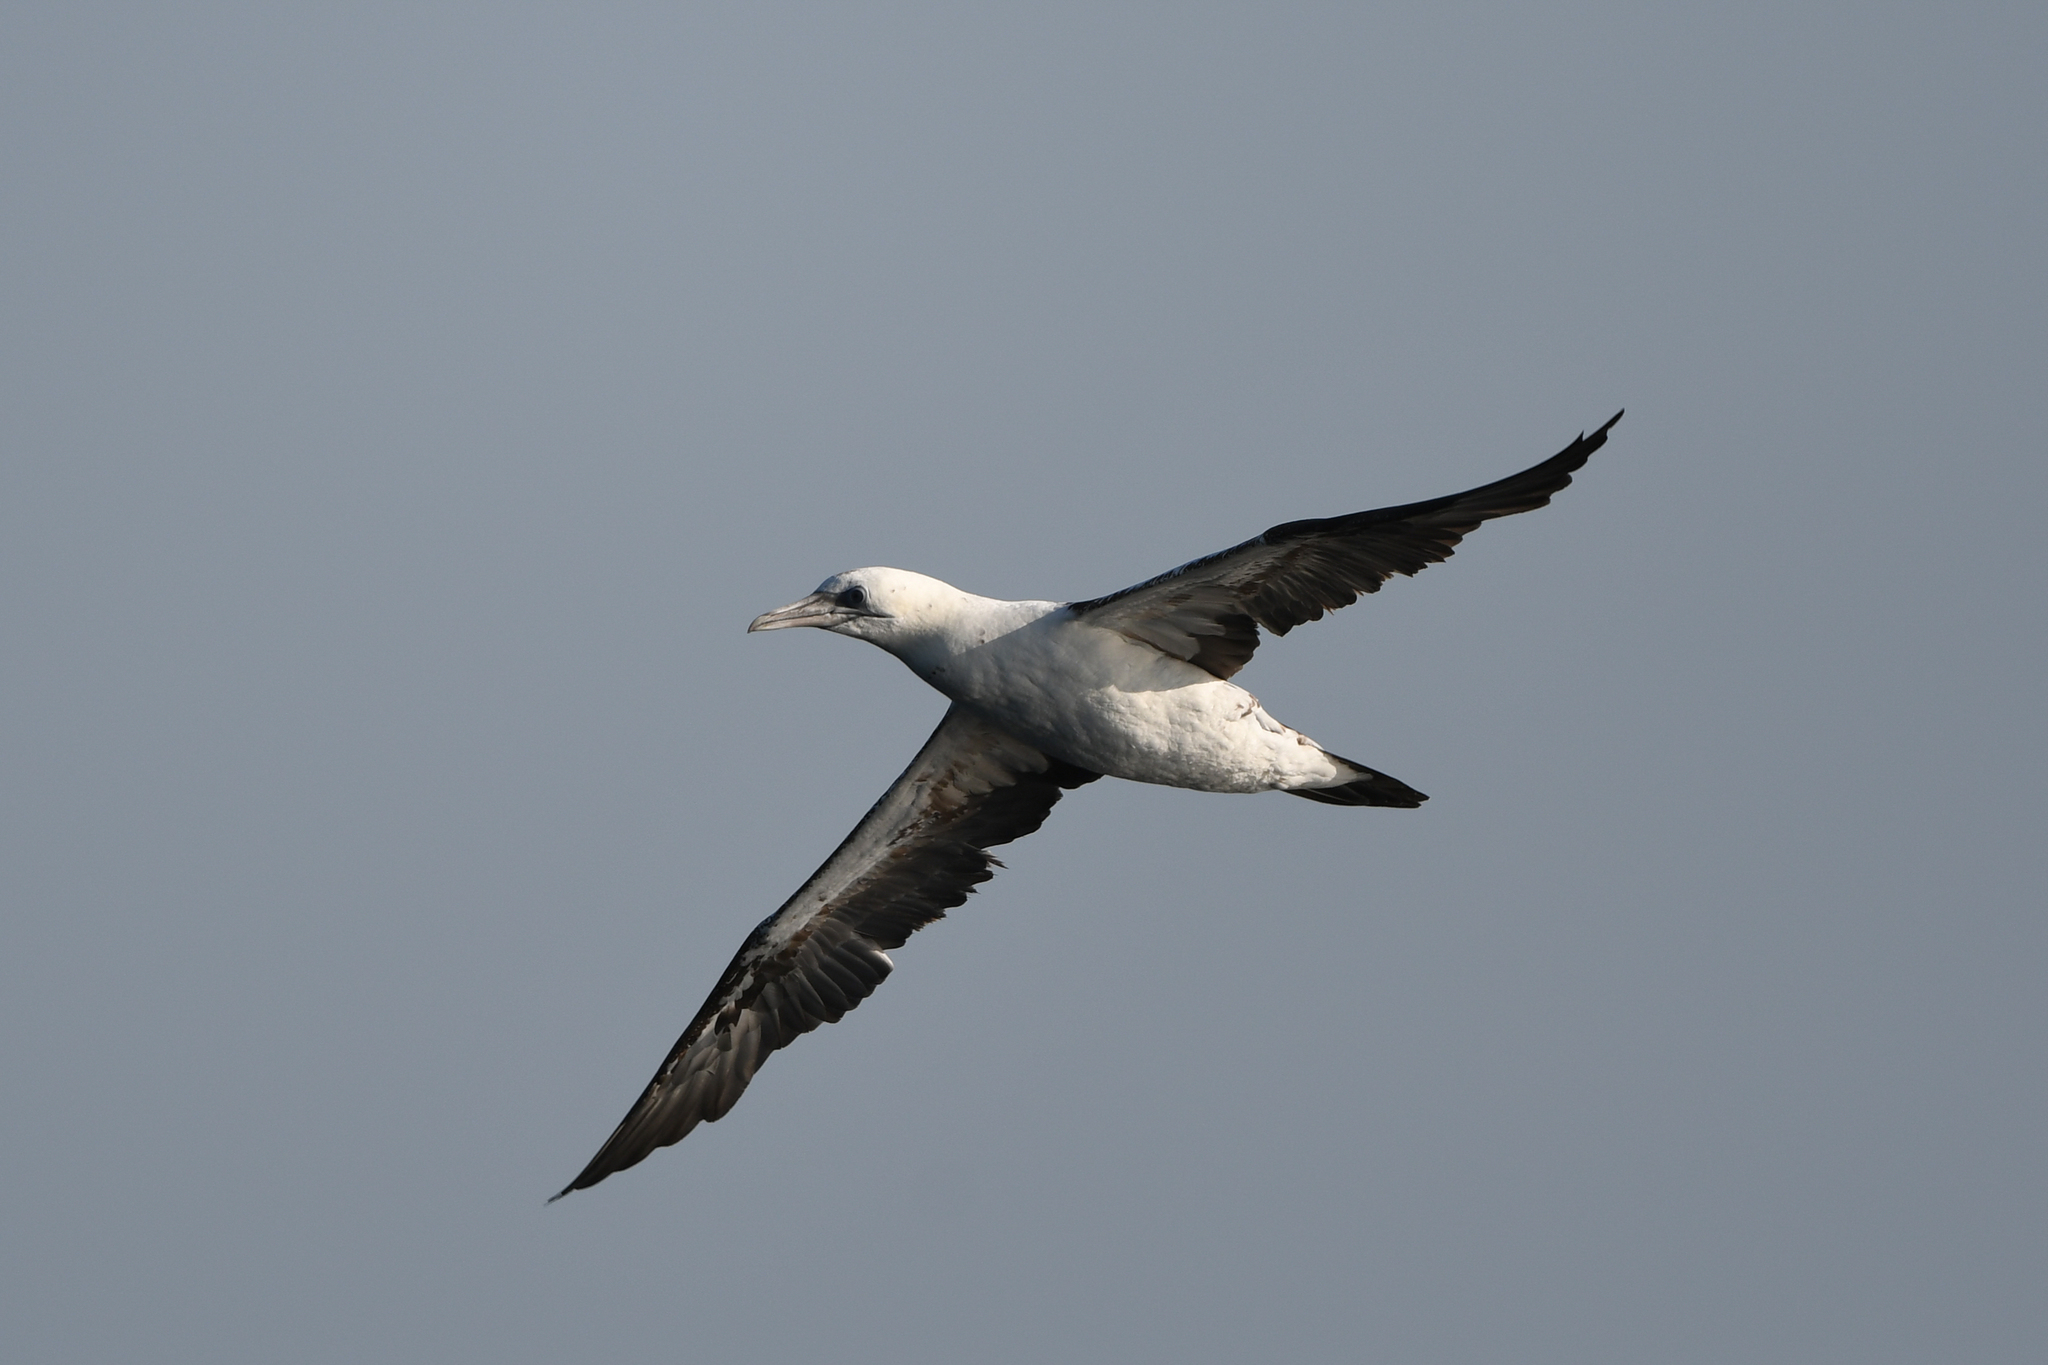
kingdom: Animalia
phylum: Chordata
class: Aves
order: Suliformes
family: Sulidae
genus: Morus
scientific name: Morus bassanus
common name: Northern gannet
